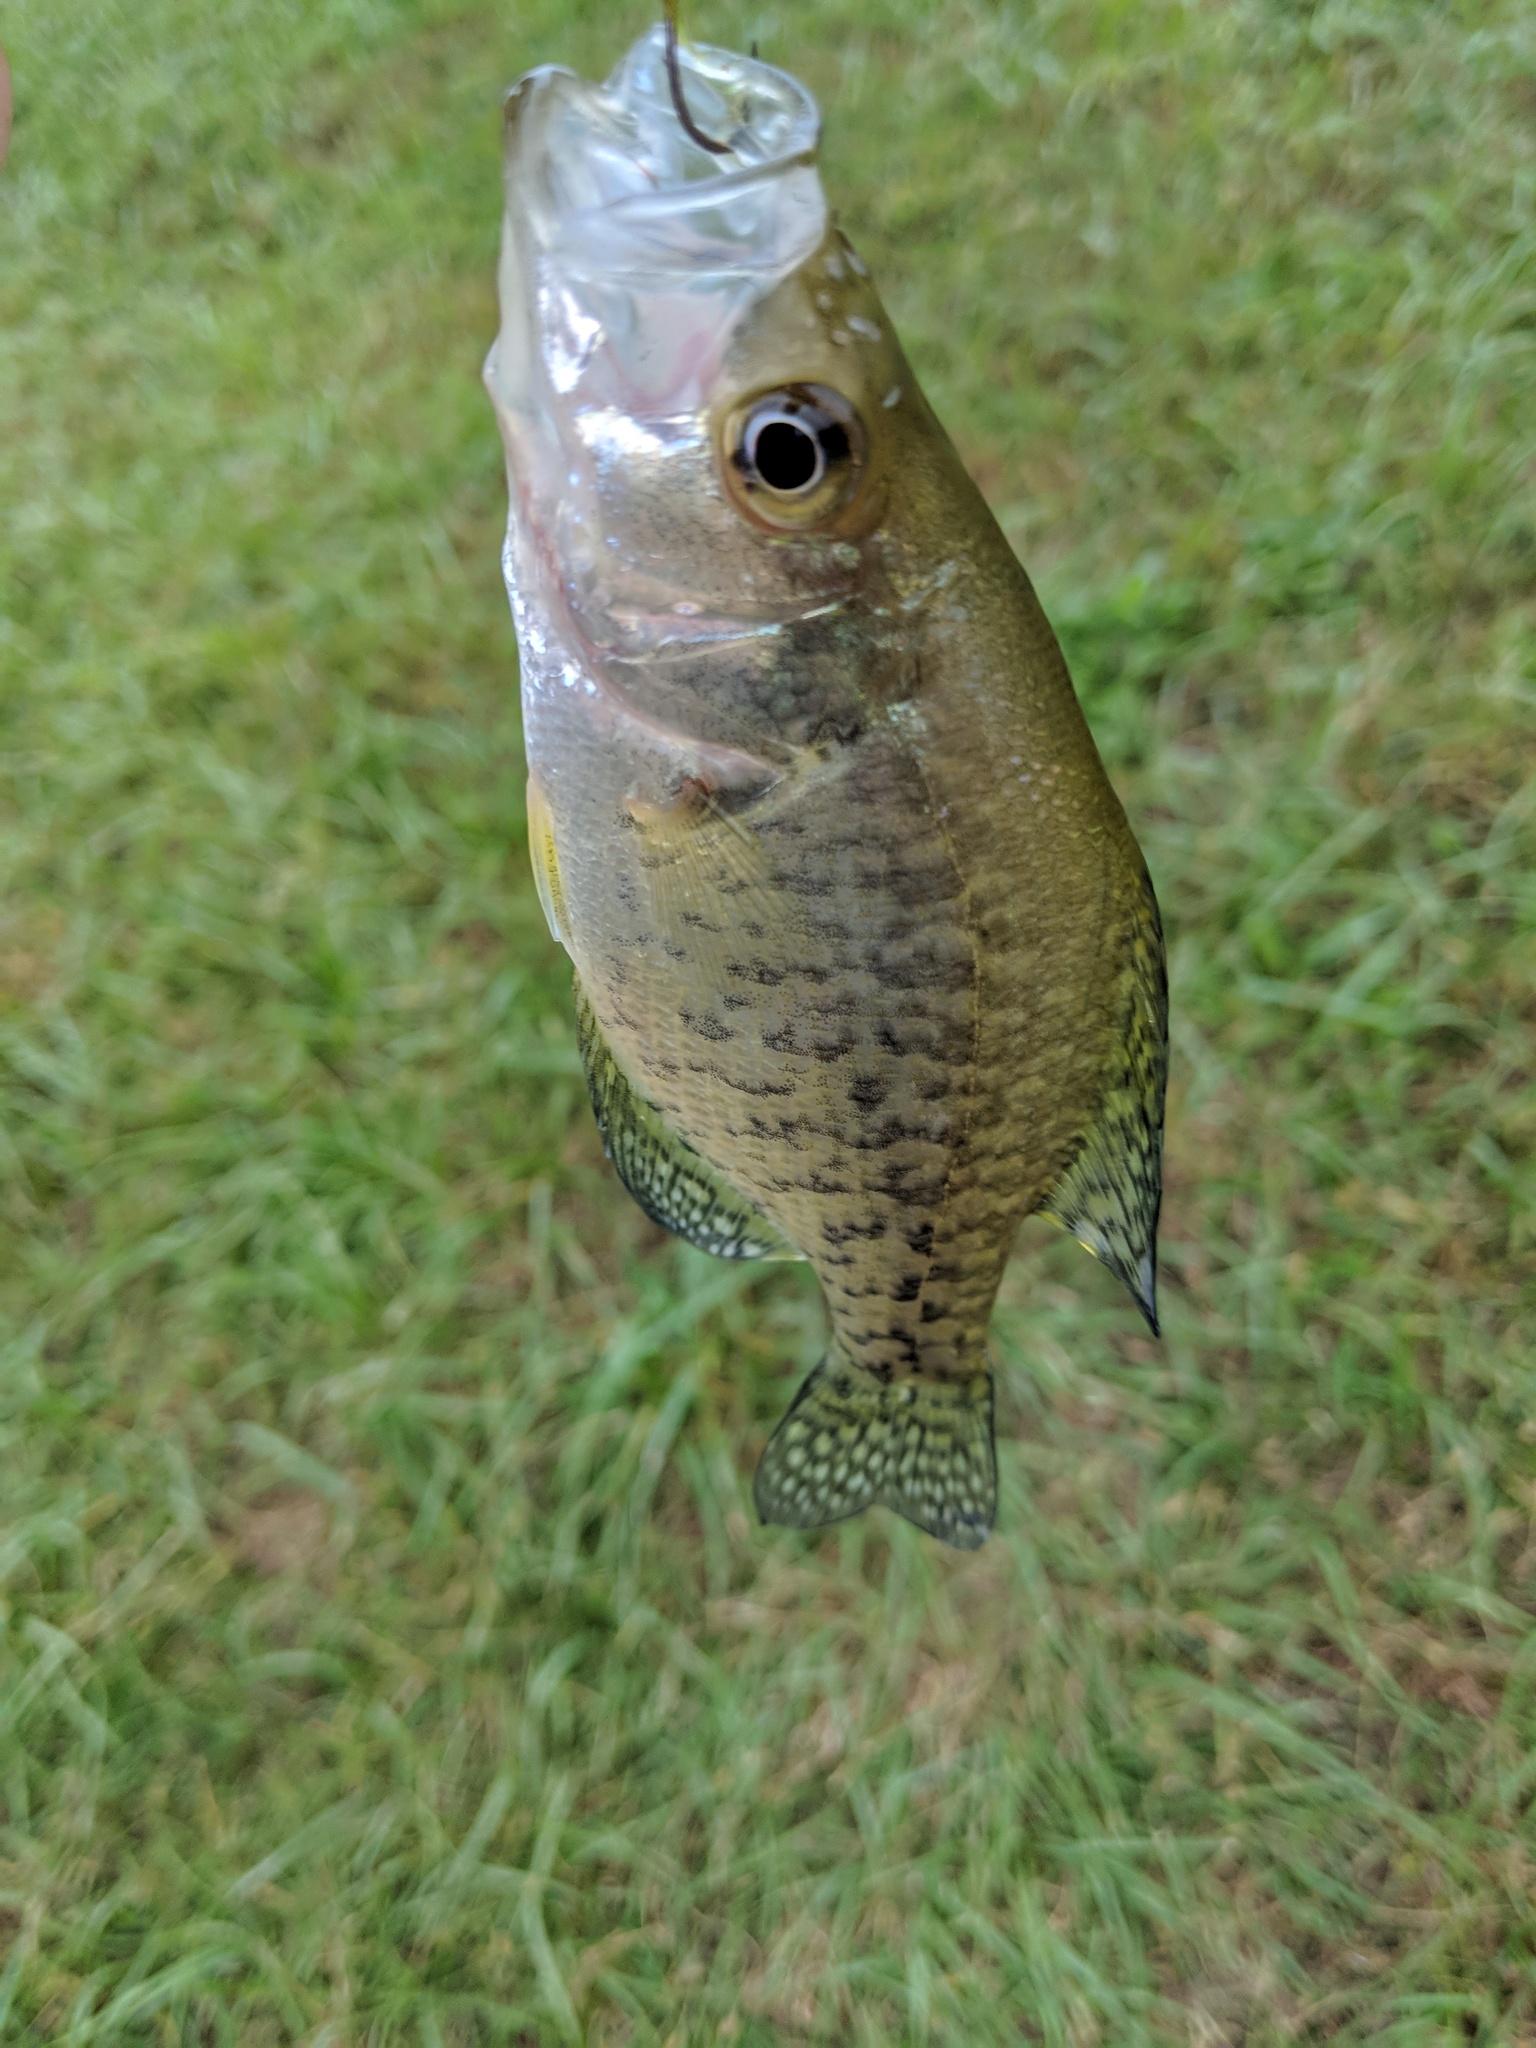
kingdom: Animalia
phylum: Chordata
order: Perciformes
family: Centrarchidae
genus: Pomoxis
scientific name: Pomoxis nigromaculatus
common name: Black crappie
